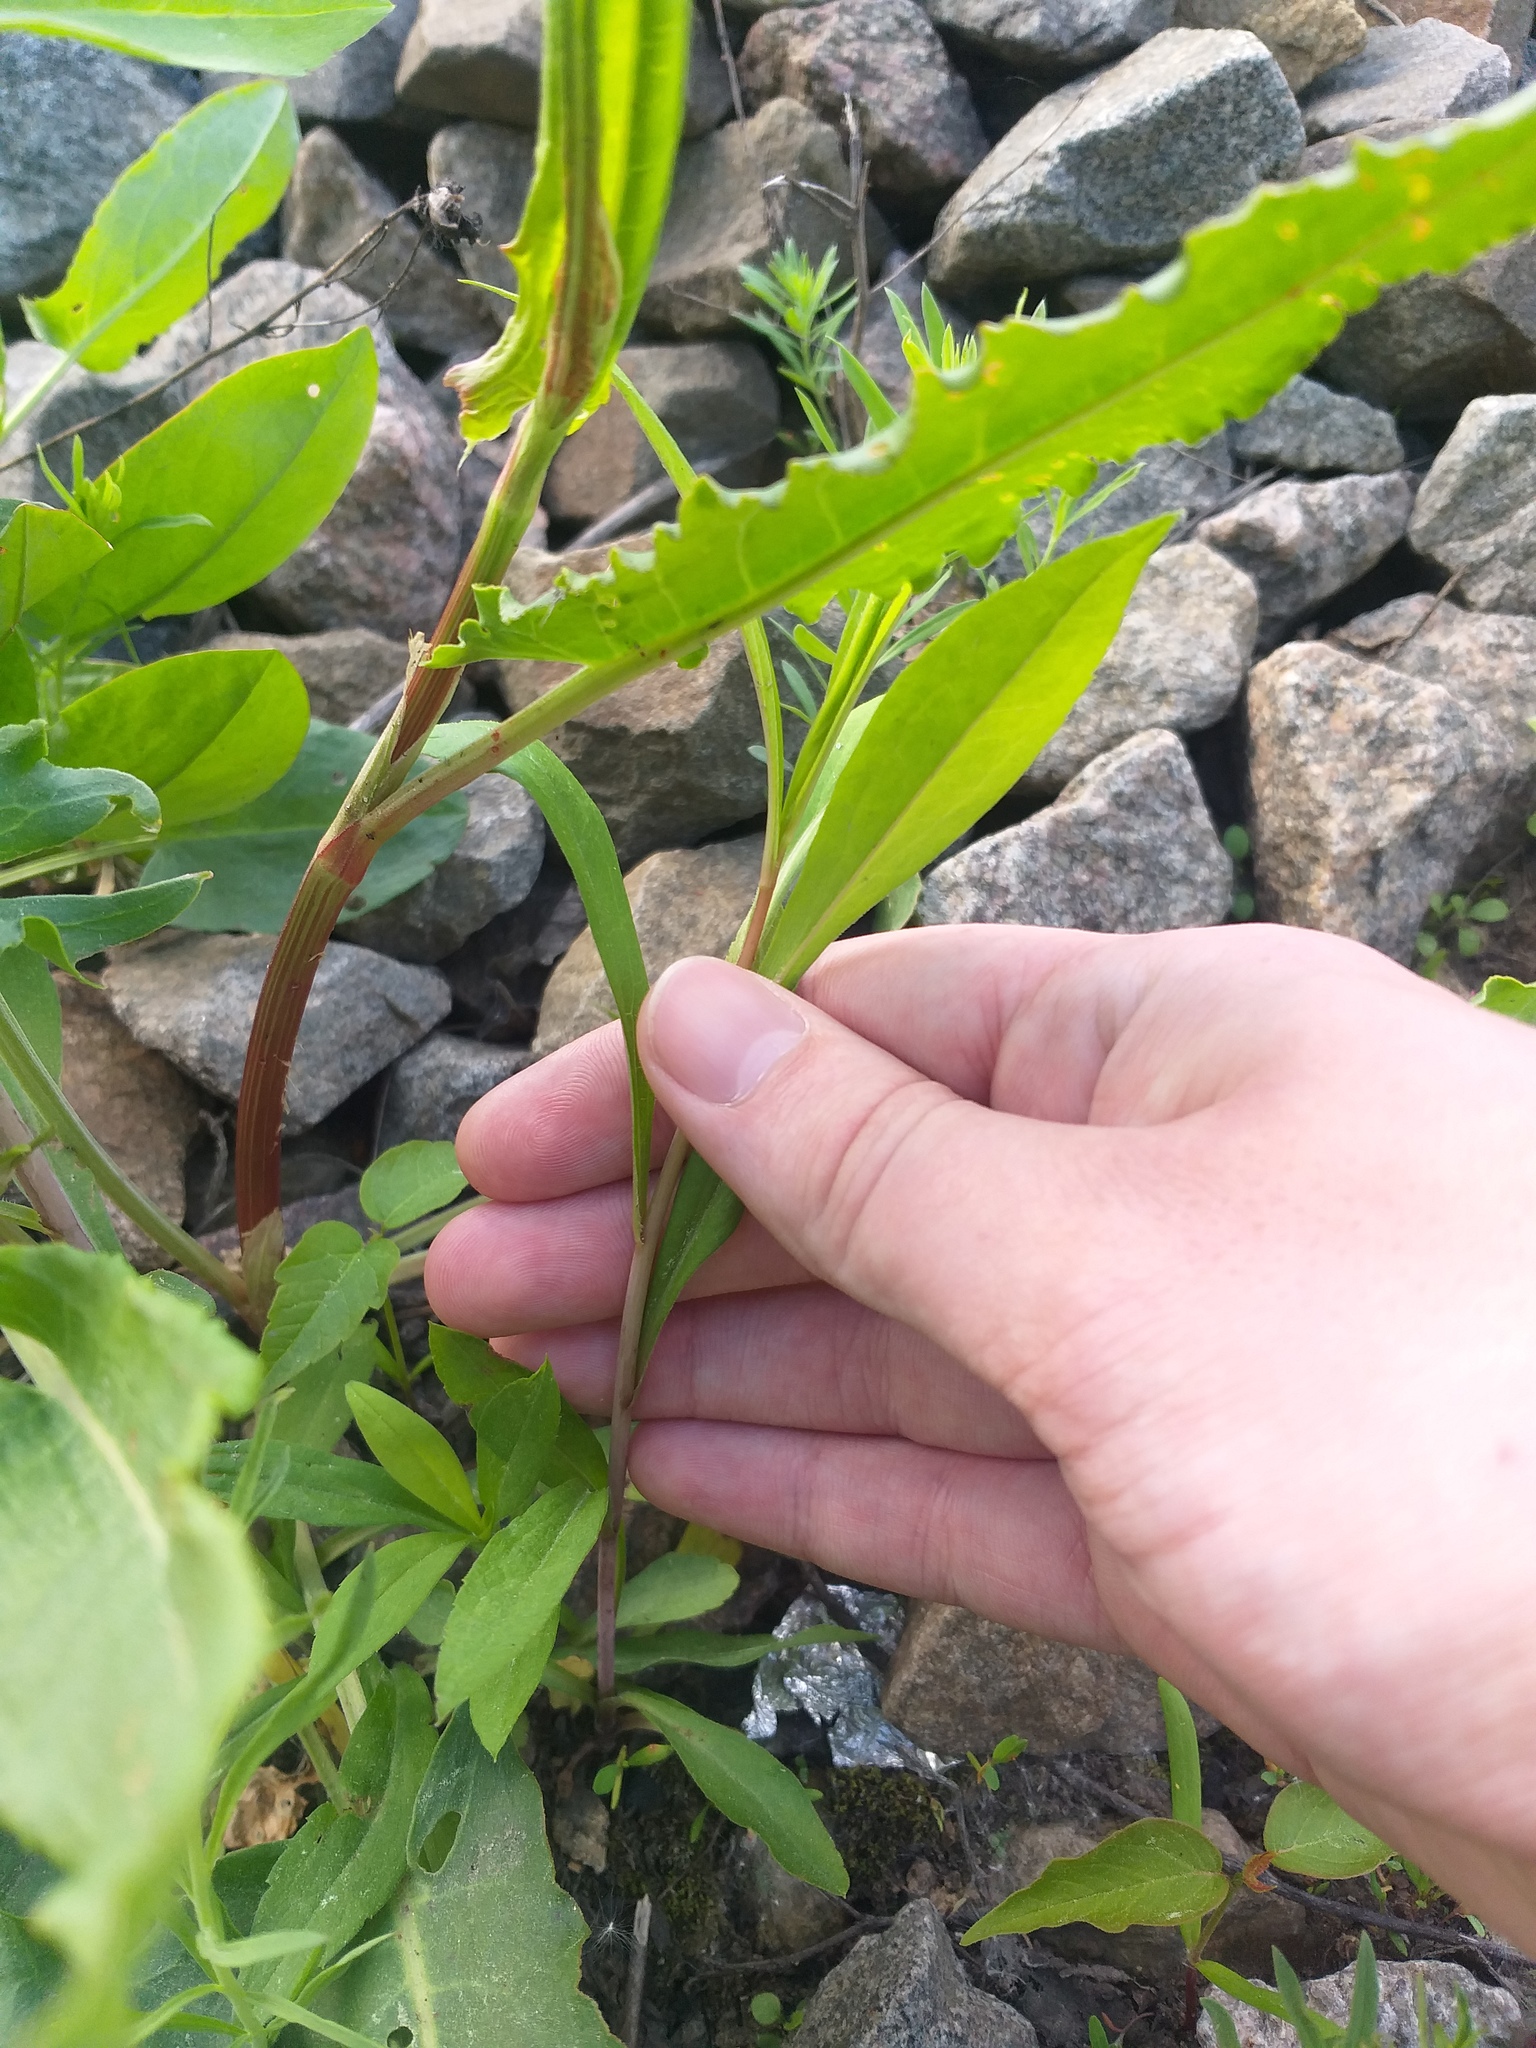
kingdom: Plantae
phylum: Tracheophyta
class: Magnoliopsida
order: Asterales
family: Asteraceae
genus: Solidago
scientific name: Solidago gigantea
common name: Giant goldenrod
